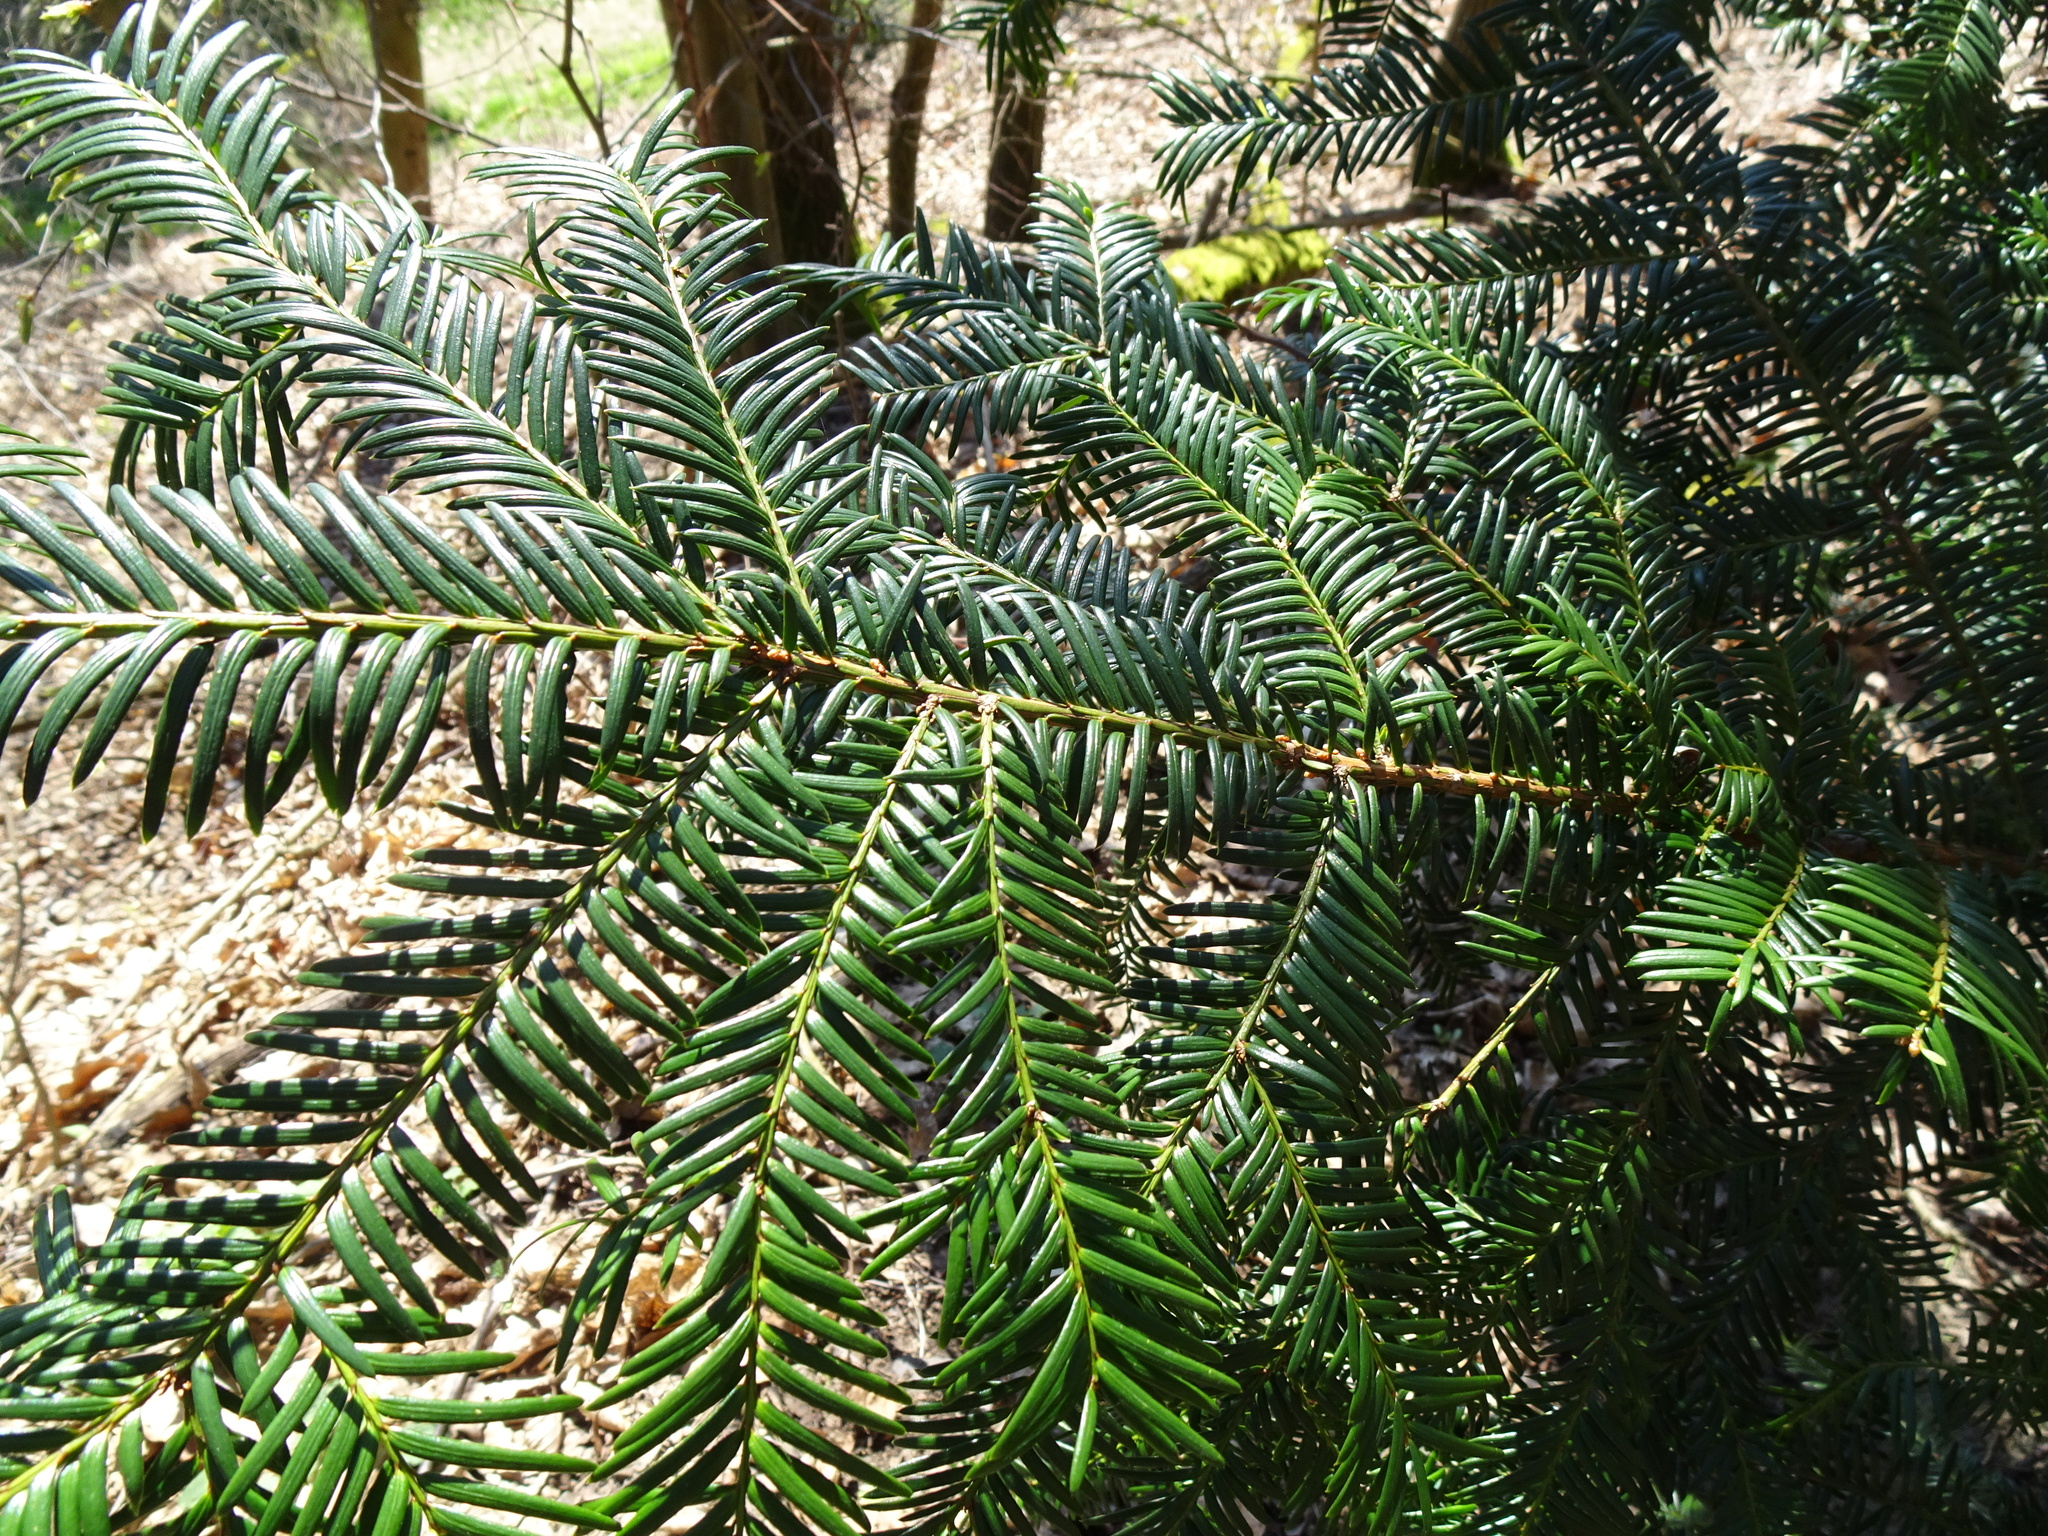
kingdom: Plantae
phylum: Tracheophyta
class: Pinopsida
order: Pinales
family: Taxaceae
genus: Taxus
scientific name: Taxus baccata
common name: Yew
